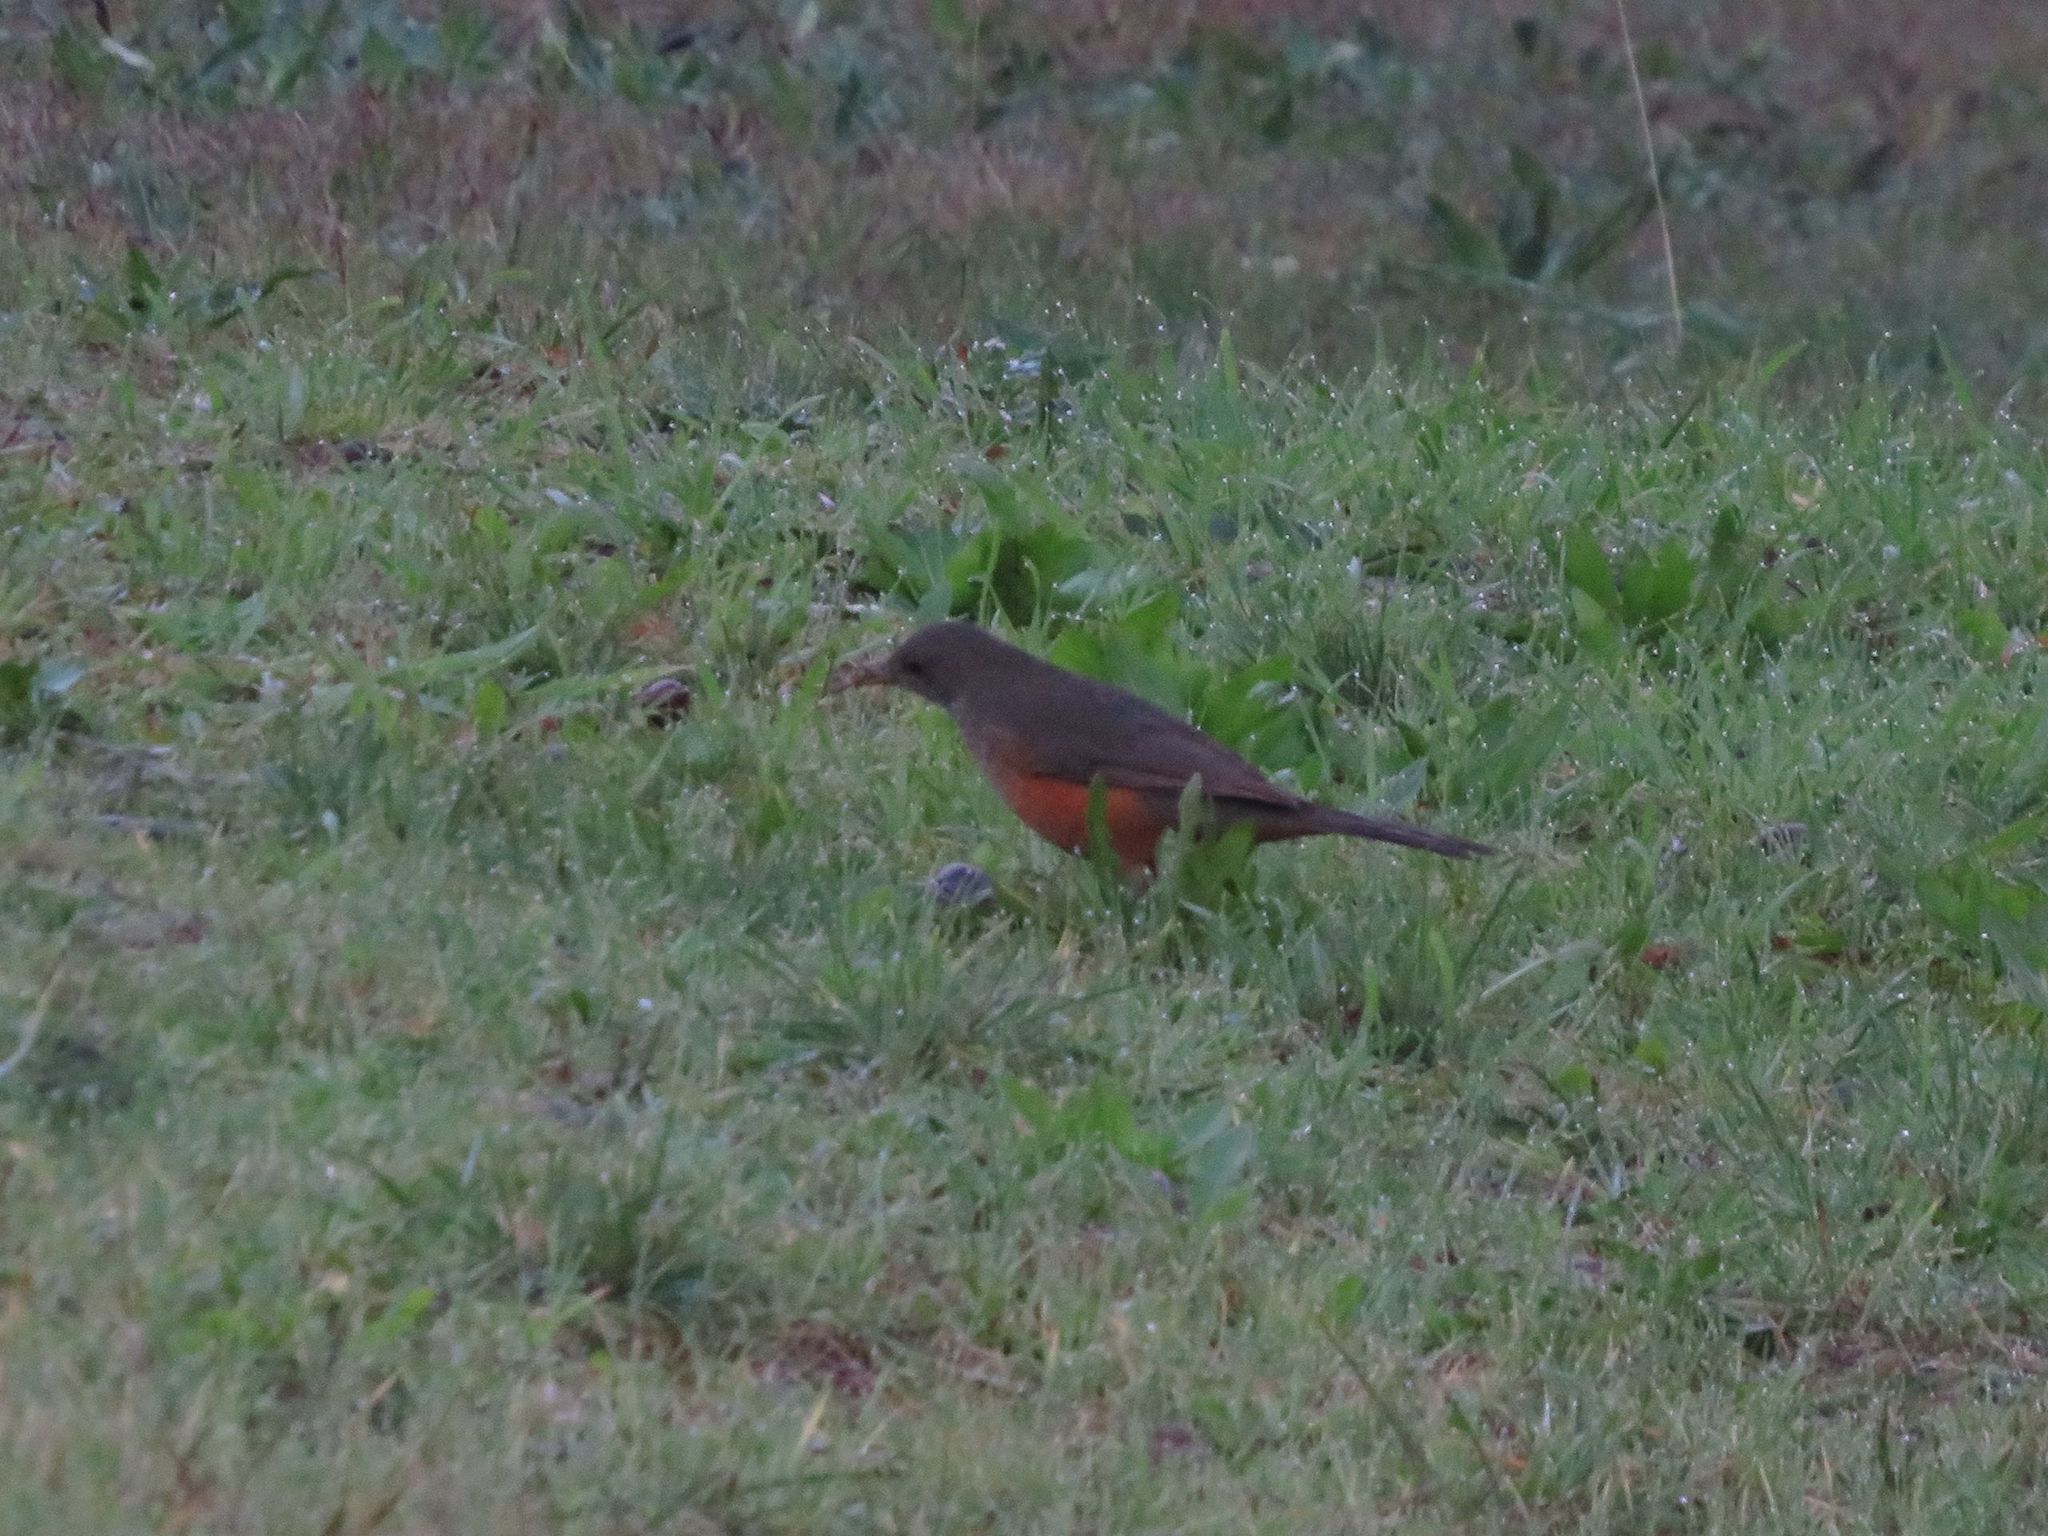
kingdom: Animalia
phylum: Chordata
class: Aves
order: Passeriformes
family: Turdidae
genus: Turdus
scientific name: Turdus rufiventris
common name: Rufous-bellied thrush
